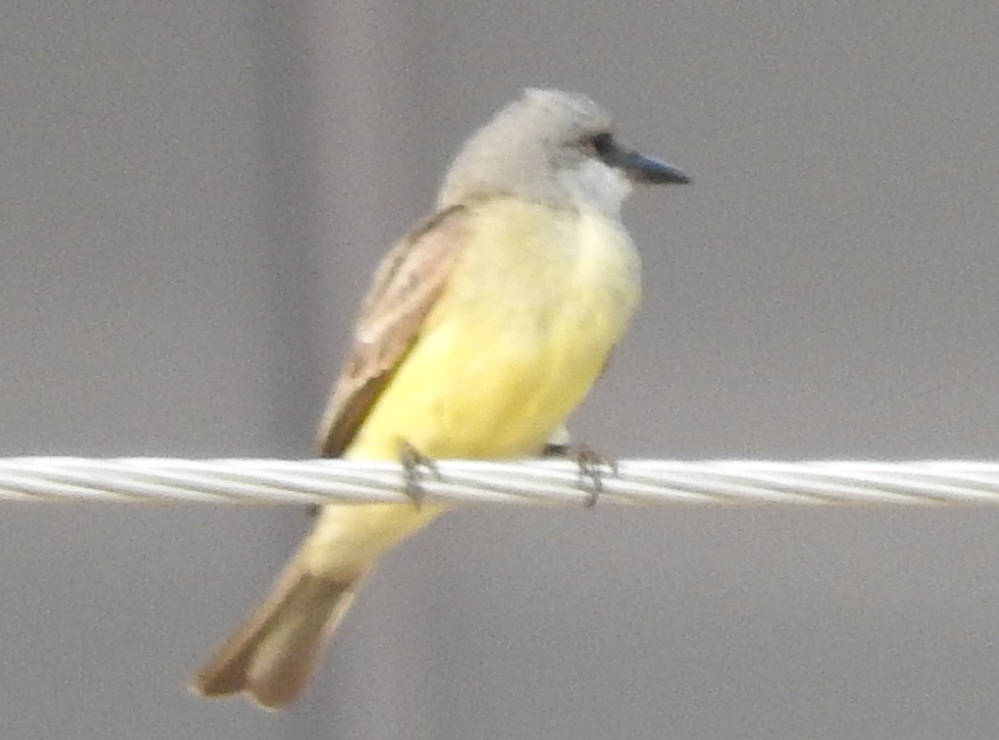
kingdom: Animalia
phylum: Chordata
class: Aves
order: Passeriformes
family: Tyrannidae
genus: Tyrannus
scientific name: Tyrannus melancholicus
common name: Tropical kingbird
